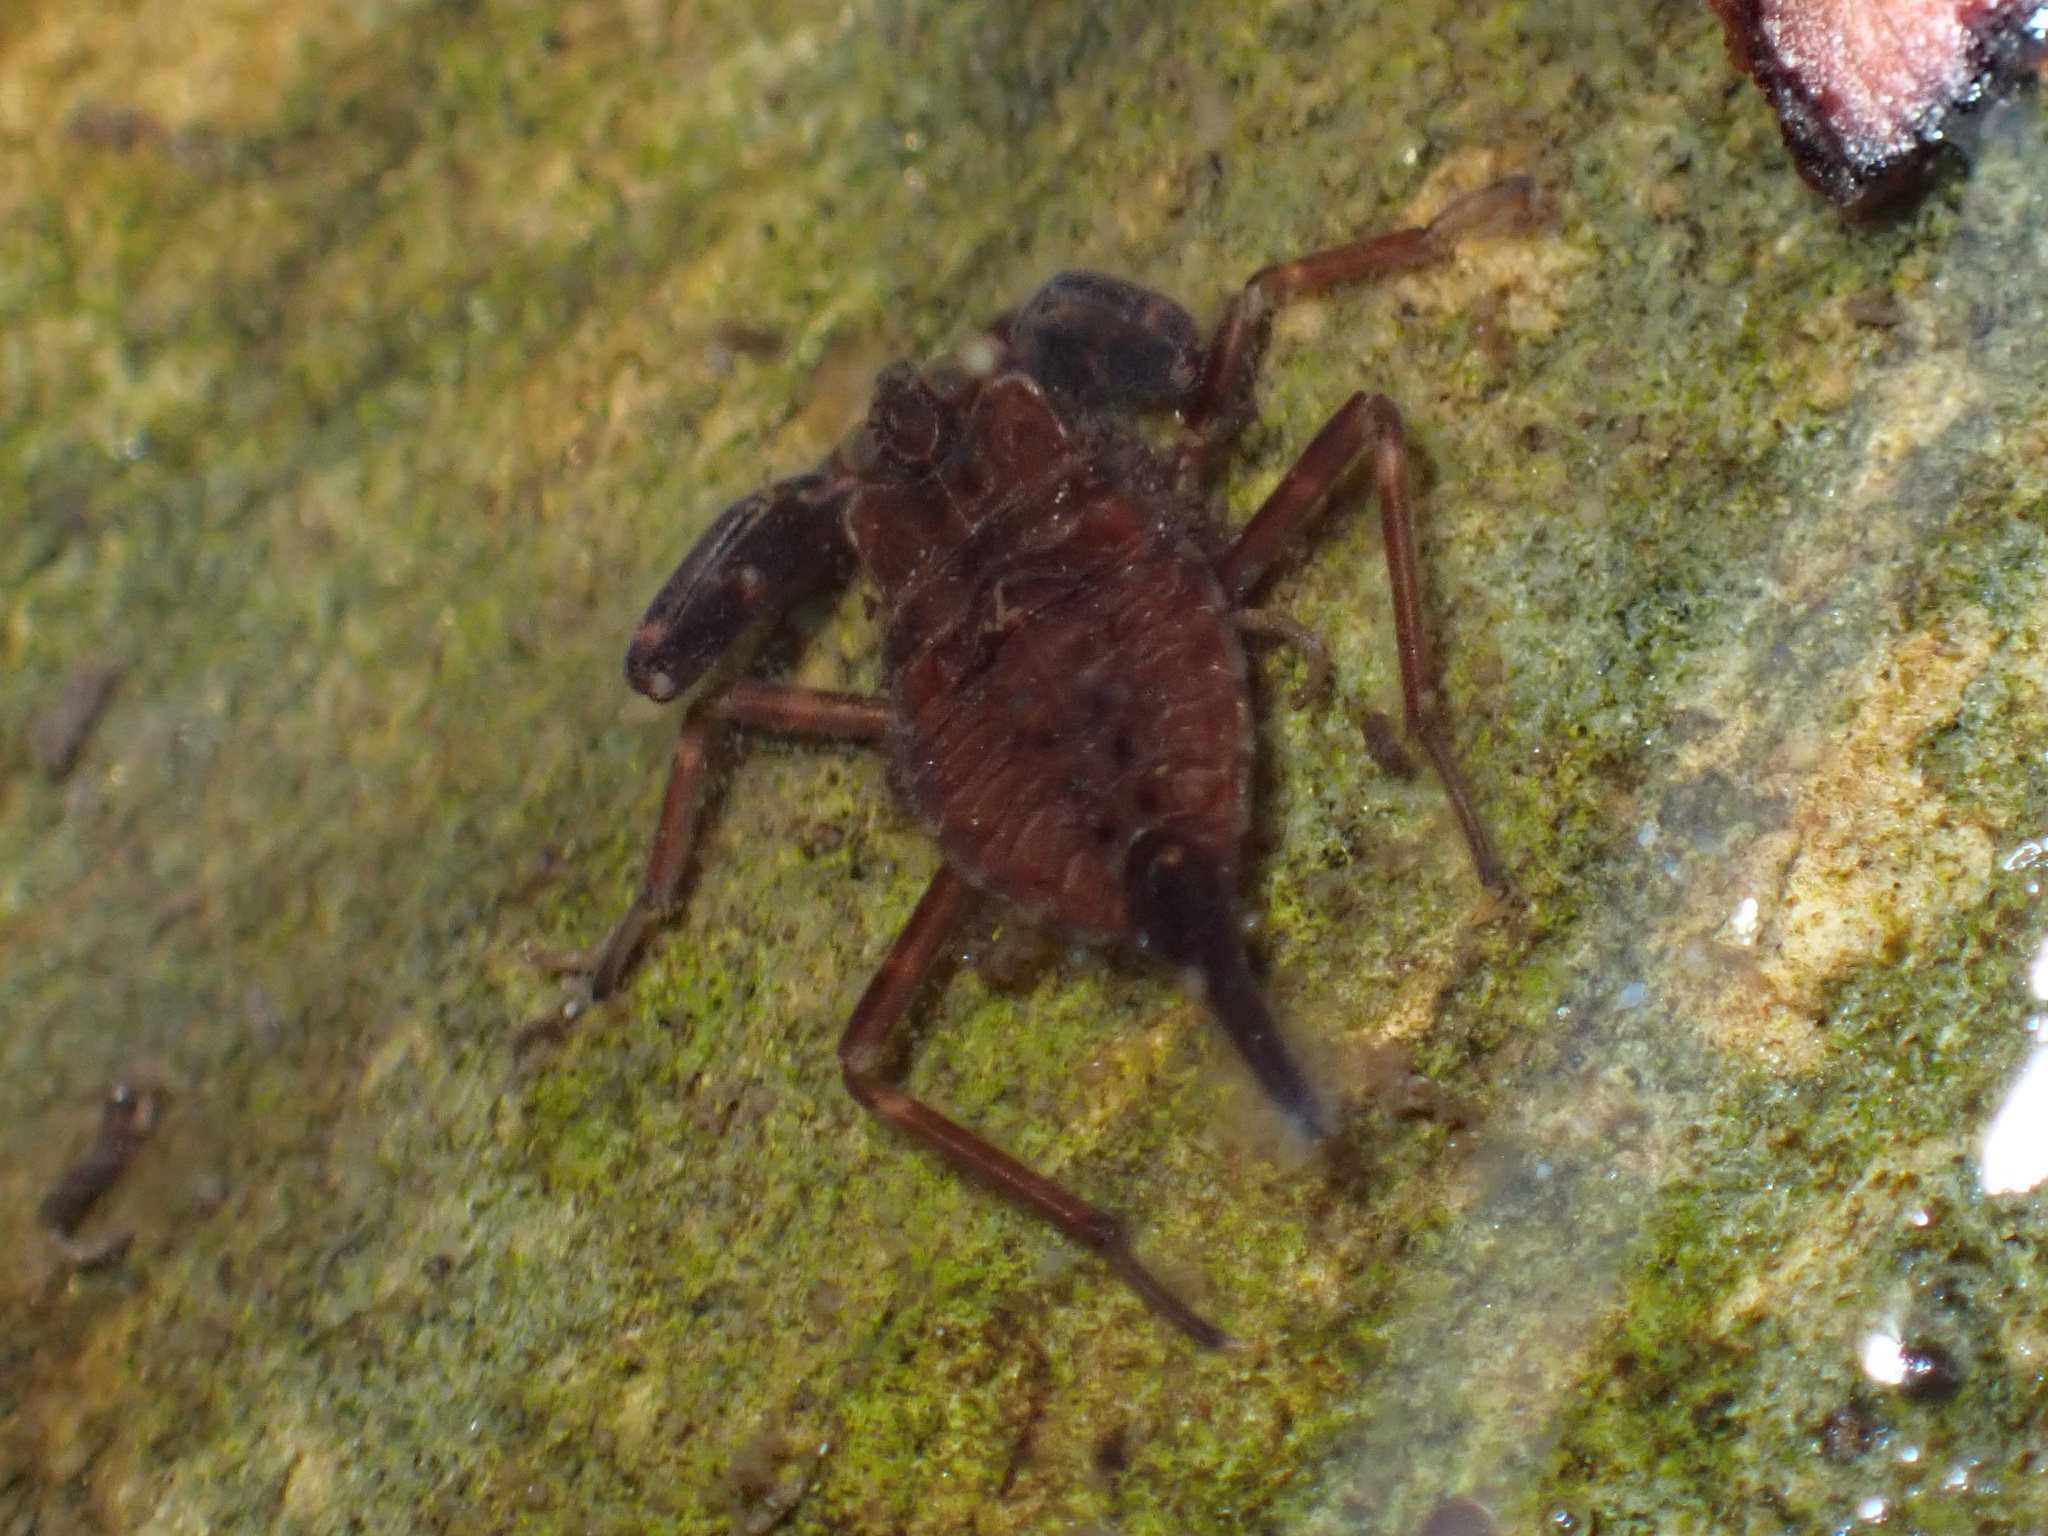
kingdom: Animalia
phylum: Arthropoda
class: Insecta
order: Hemiptera
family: Nepidae
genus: Laccotrephes
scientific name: Laccotrephes tristis
